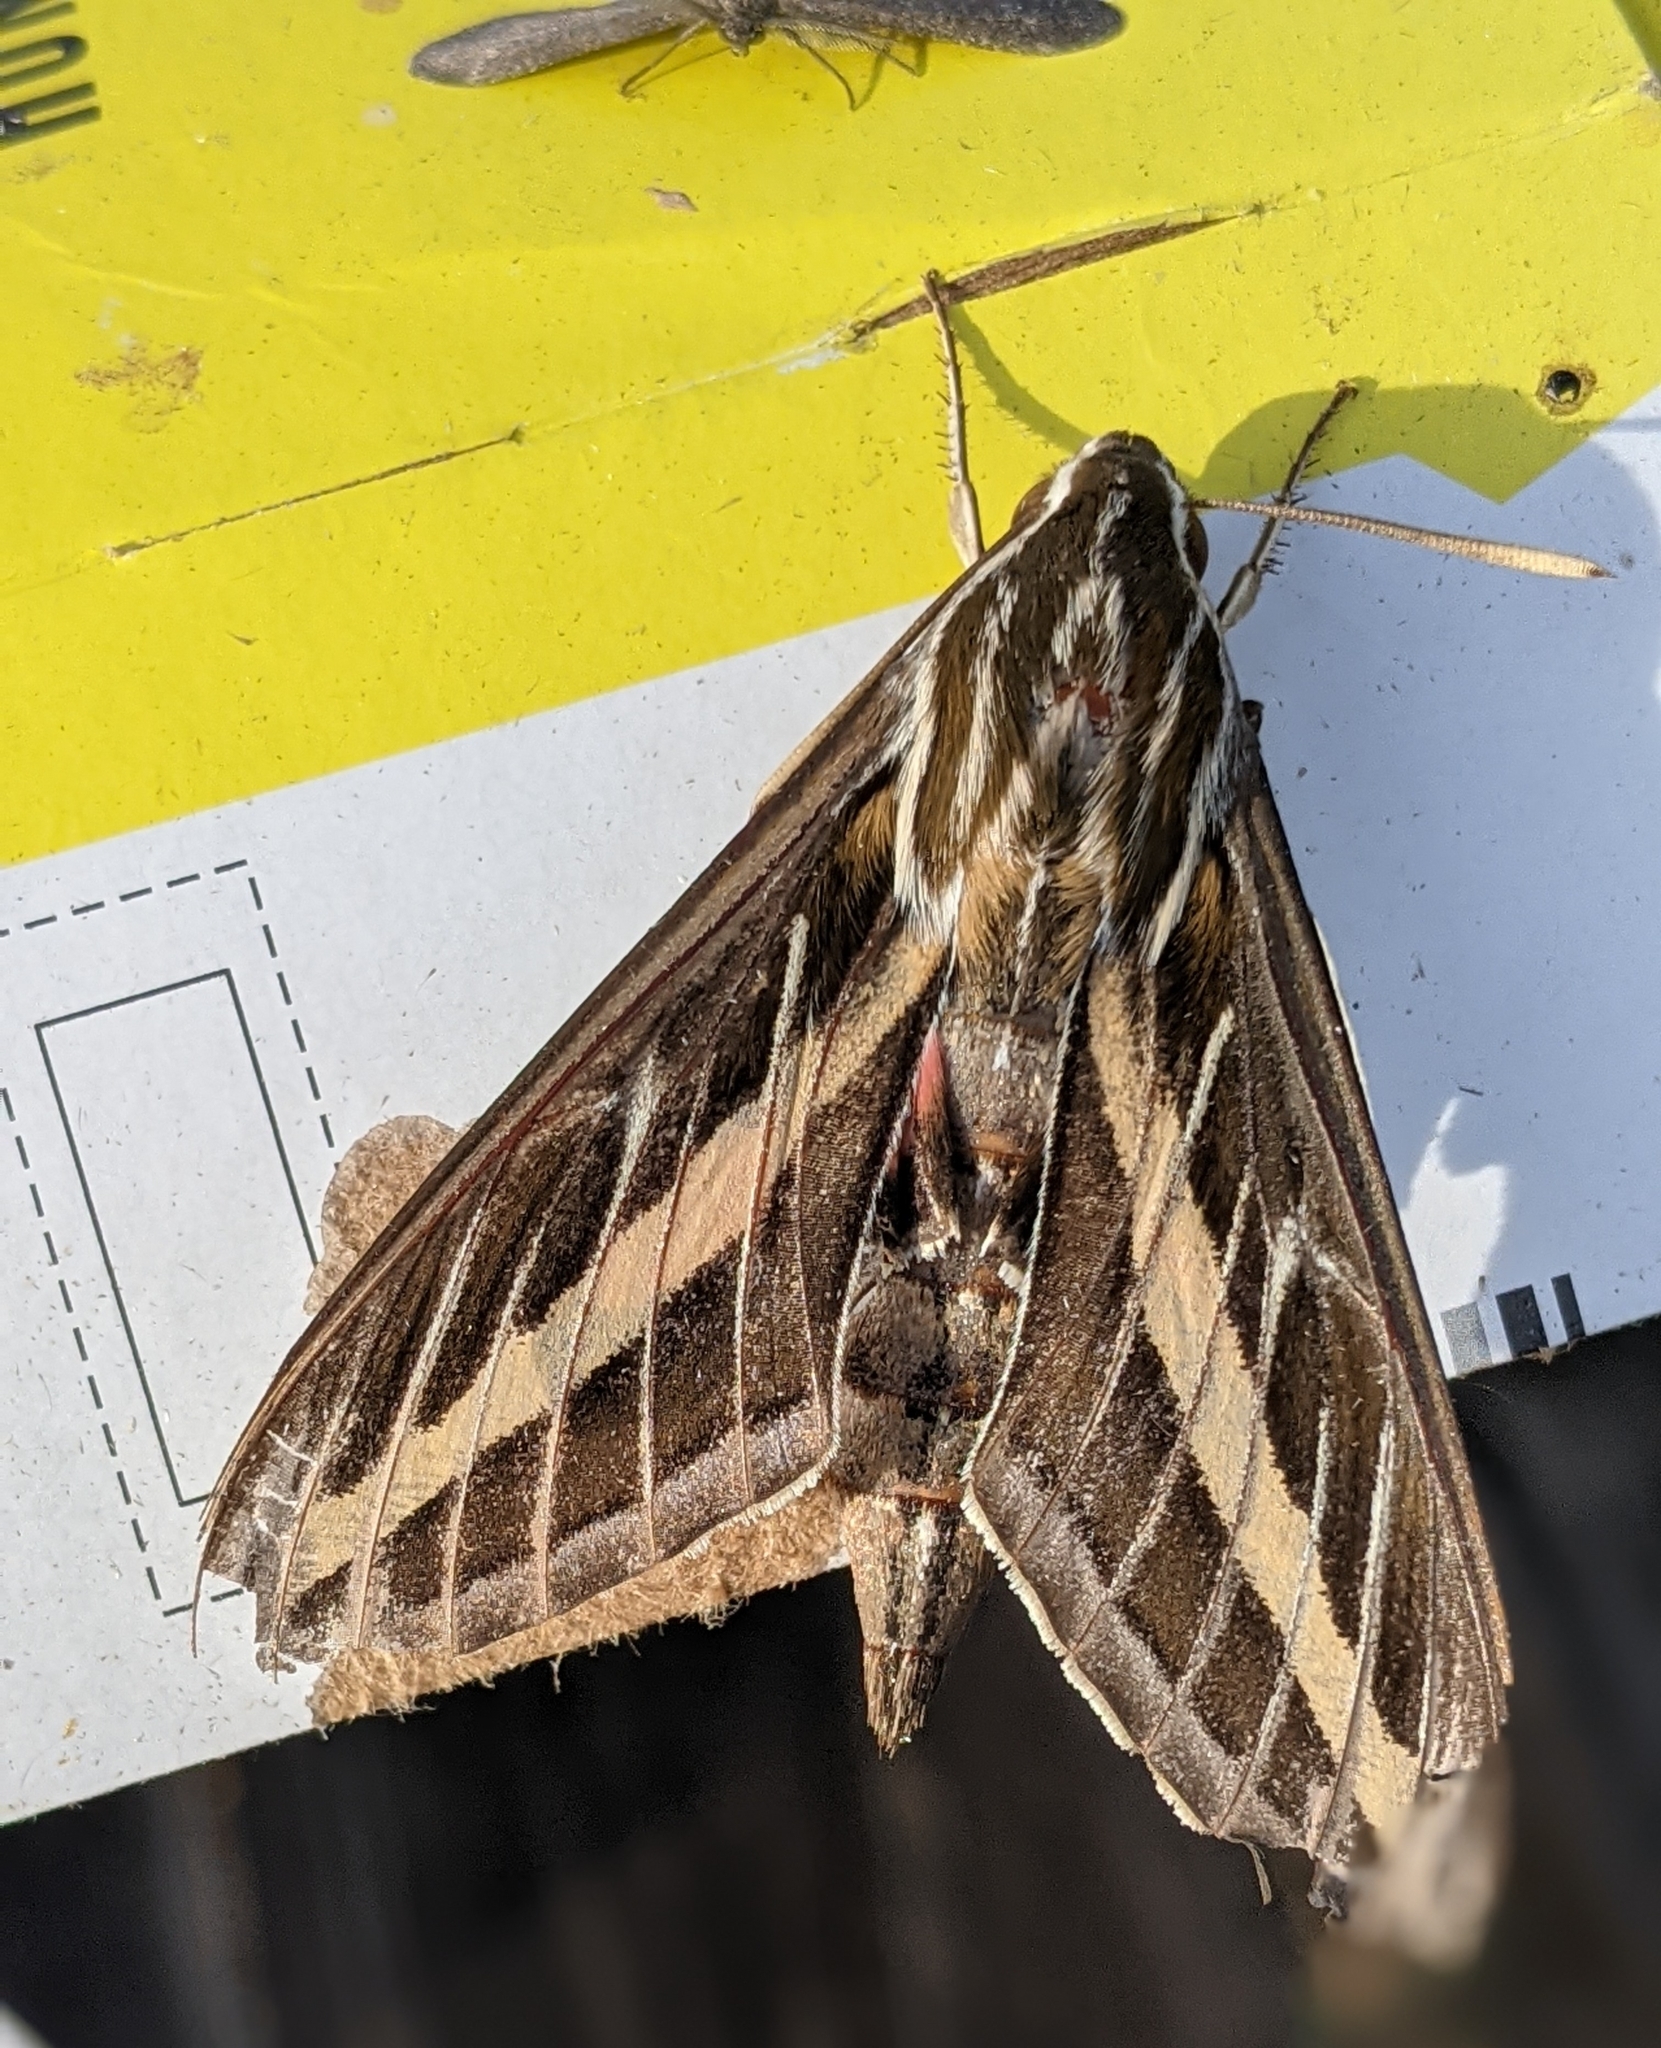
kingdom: Animalia
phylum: Arthropoda
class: Insecta
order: Lepidoptera
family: Sphingidae
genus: Hyles
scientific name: Hyles lineata
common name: White-lined sphinx
